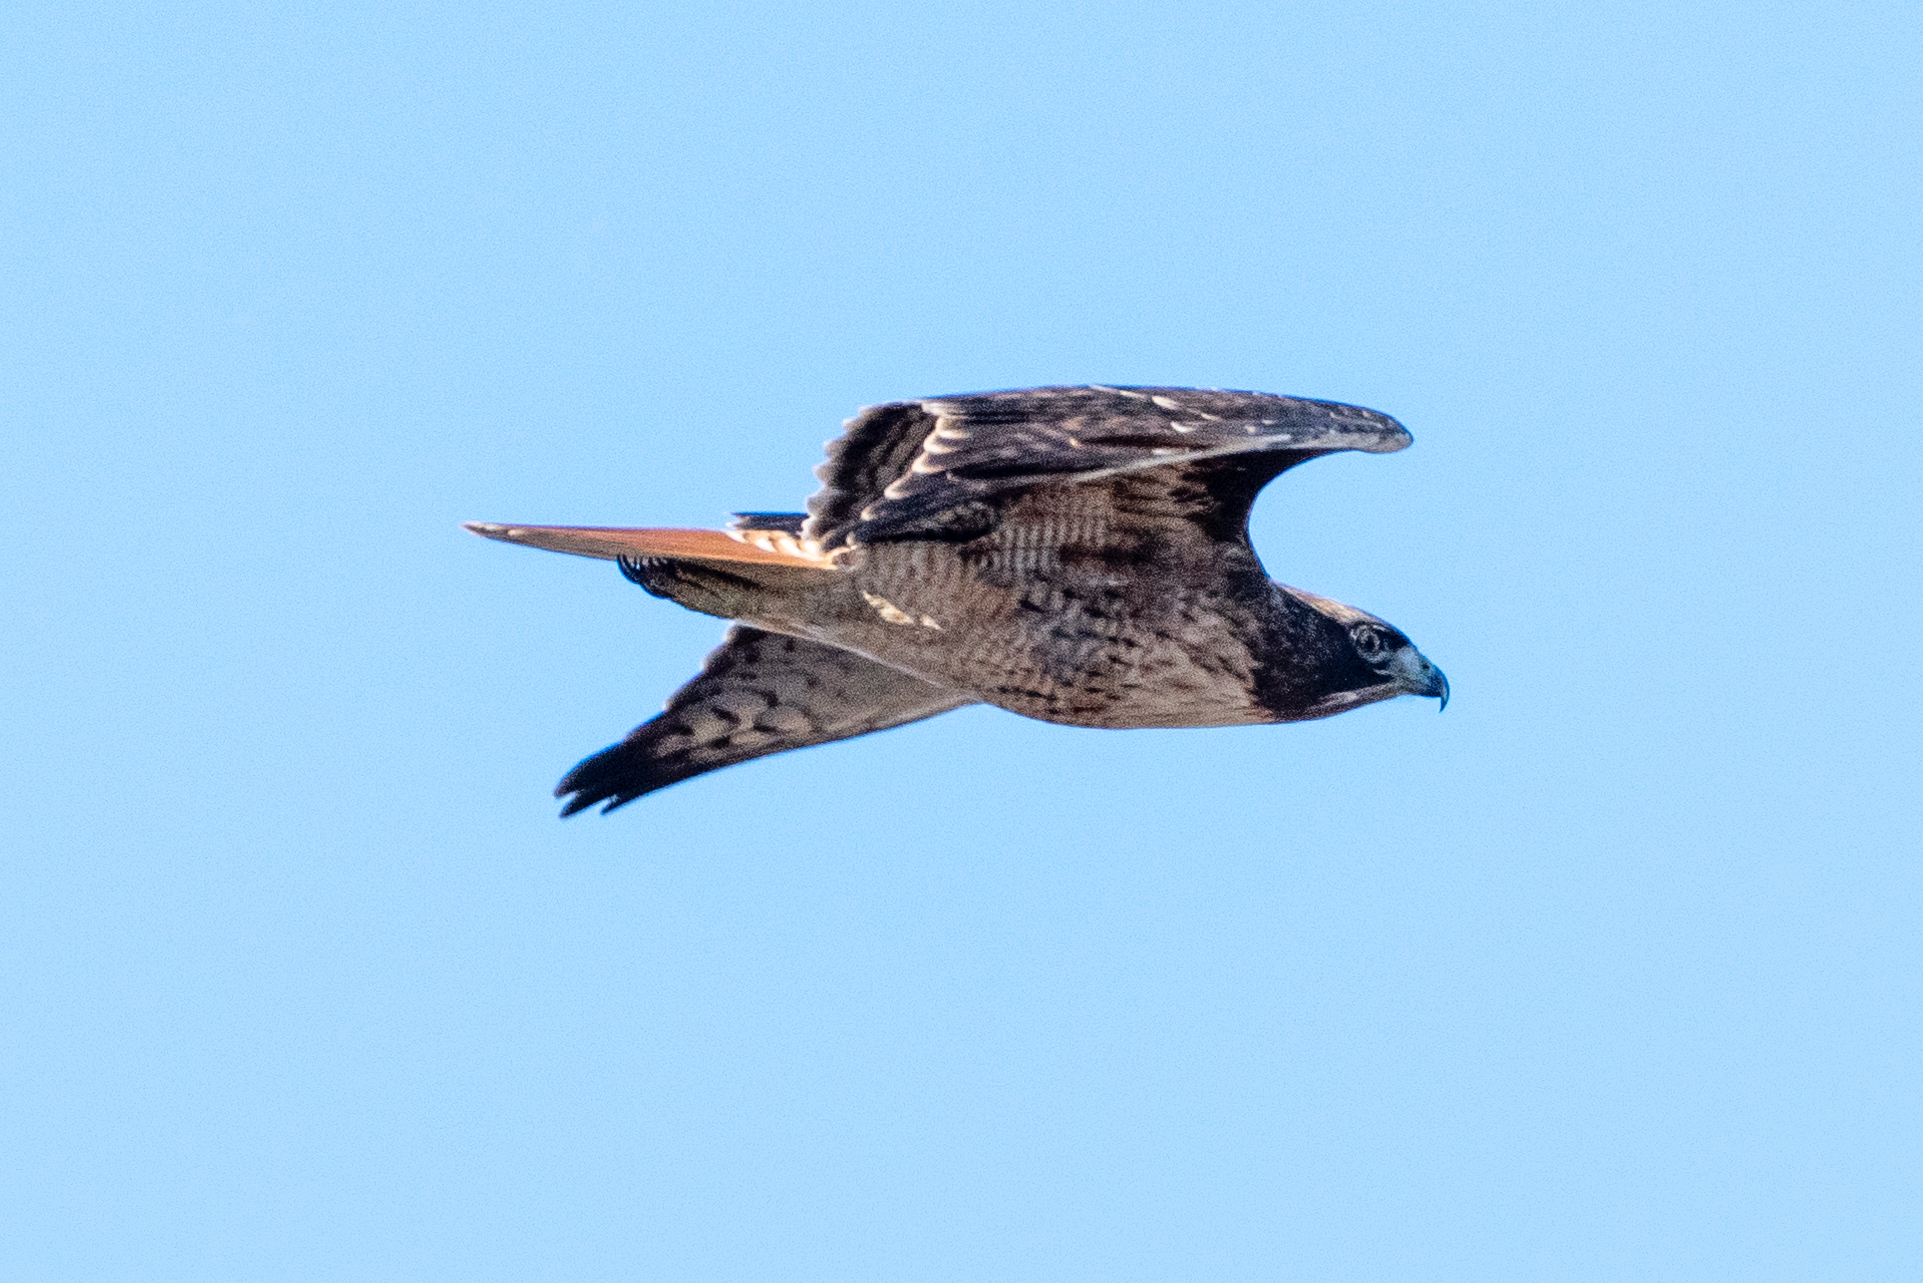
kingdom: Animalia
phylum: Chordata
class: Aves
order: Accipitriformes
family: Accipitridae
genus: Buteo
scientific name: Buteo jamaicensis
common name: Red-tailed hawk
